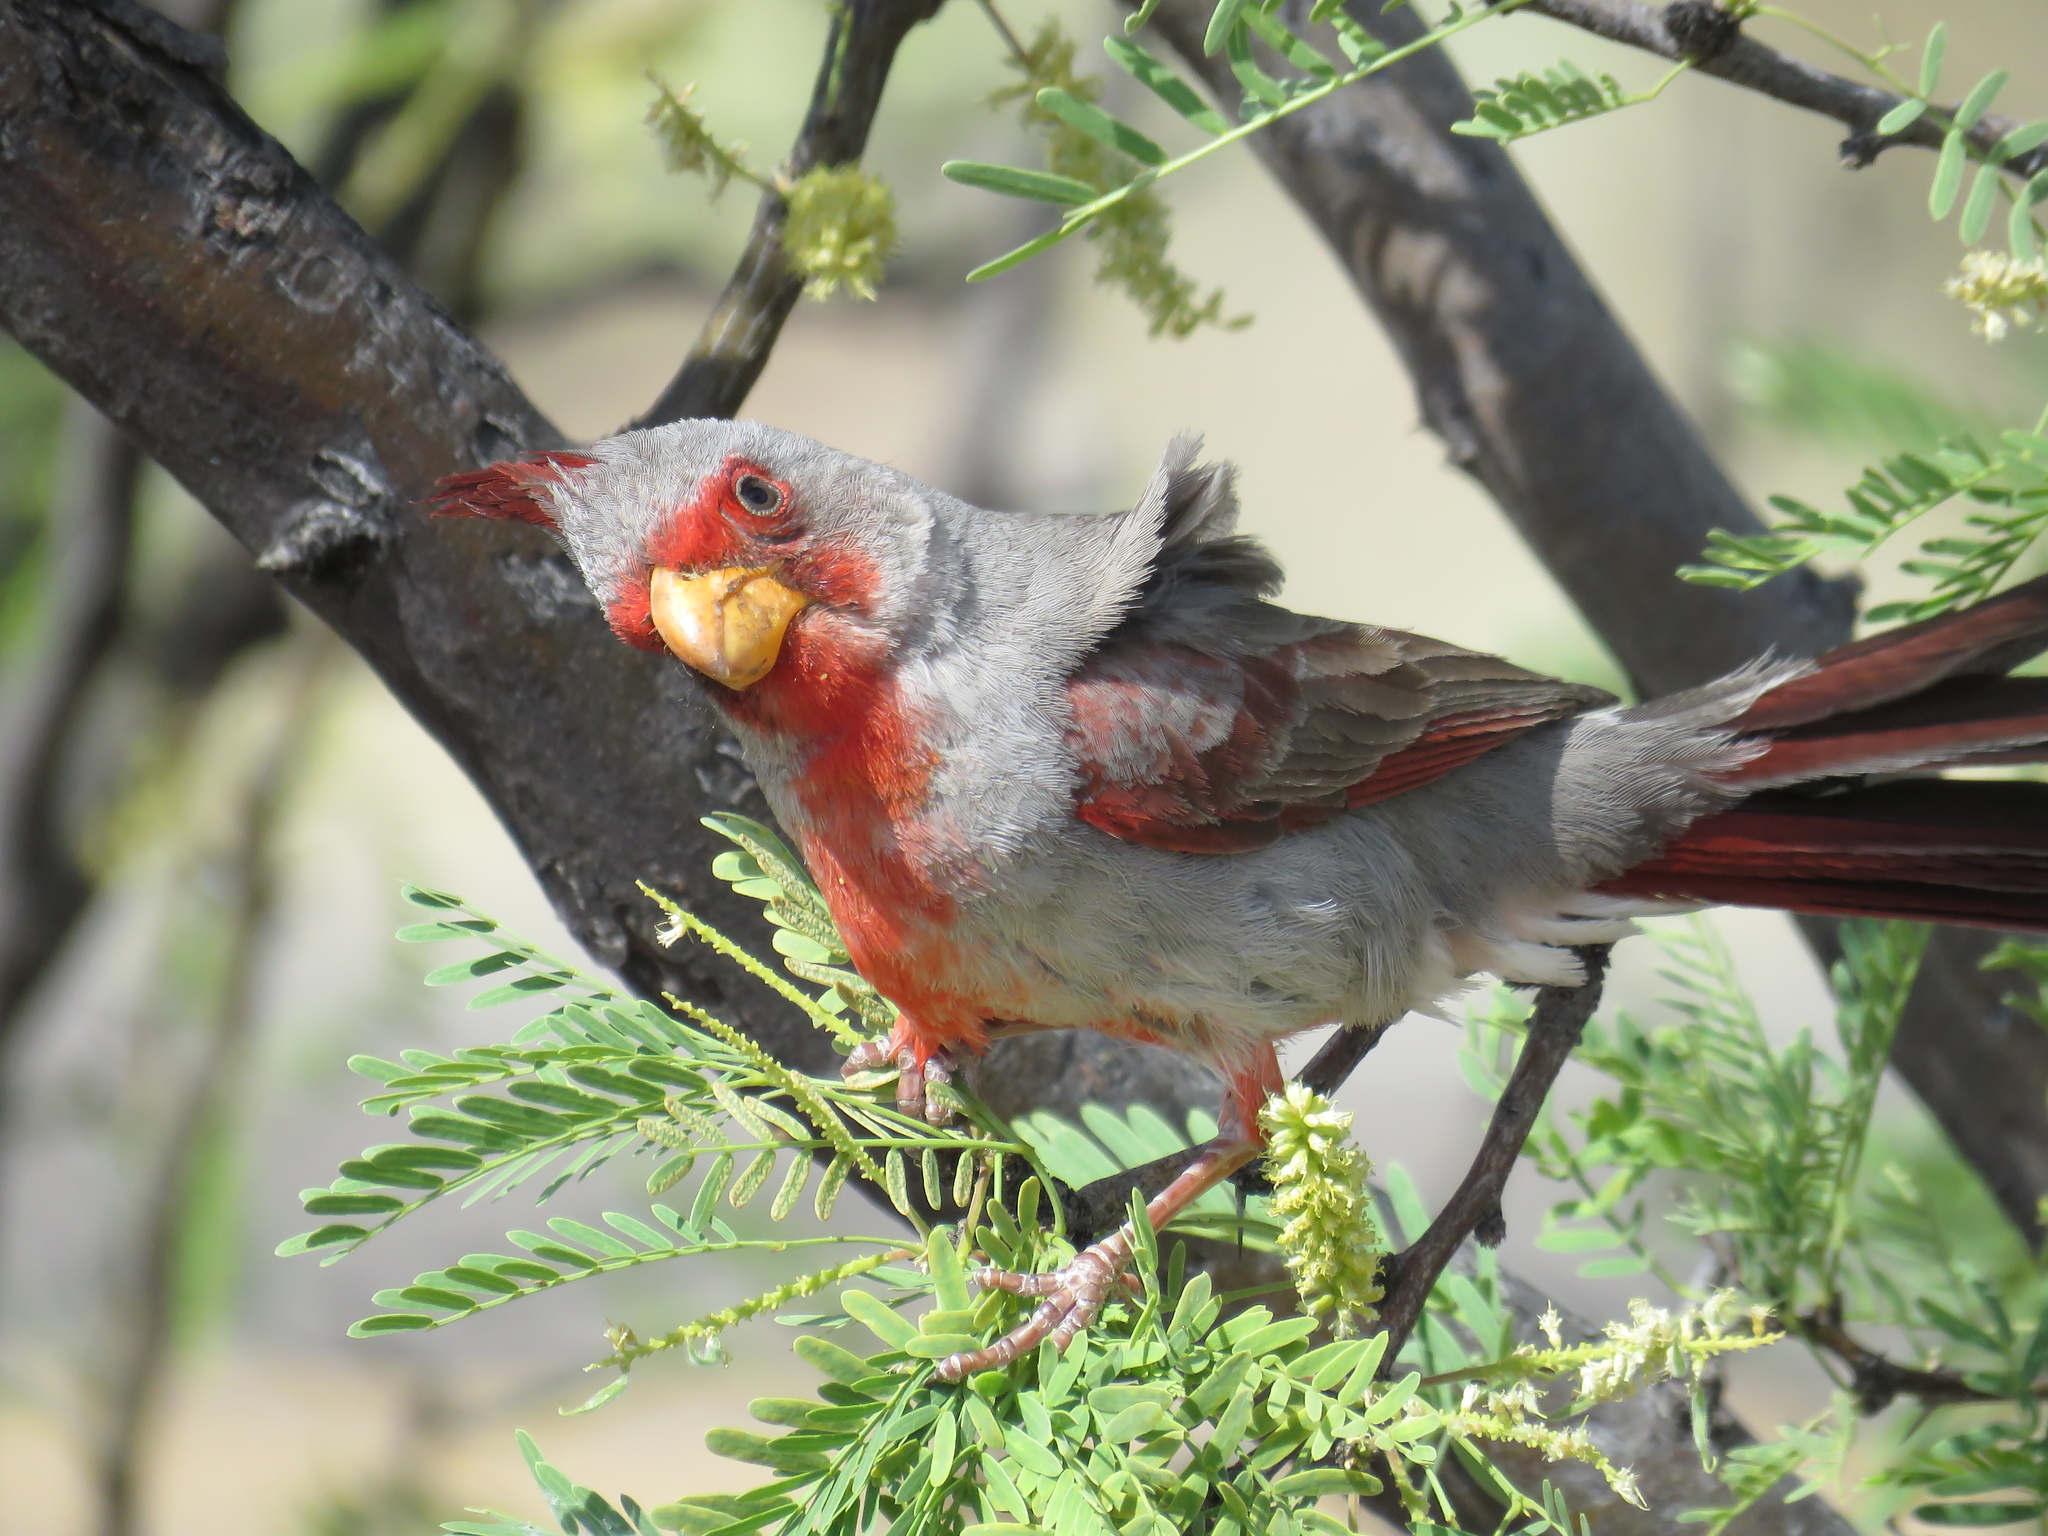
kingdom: Animalia
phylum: Chordata
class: Aves
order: Passeriformes
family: Cardinalidae
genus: Cardinalis
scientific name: Cardinalis sinuatus
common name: Pyrrhuloxia
